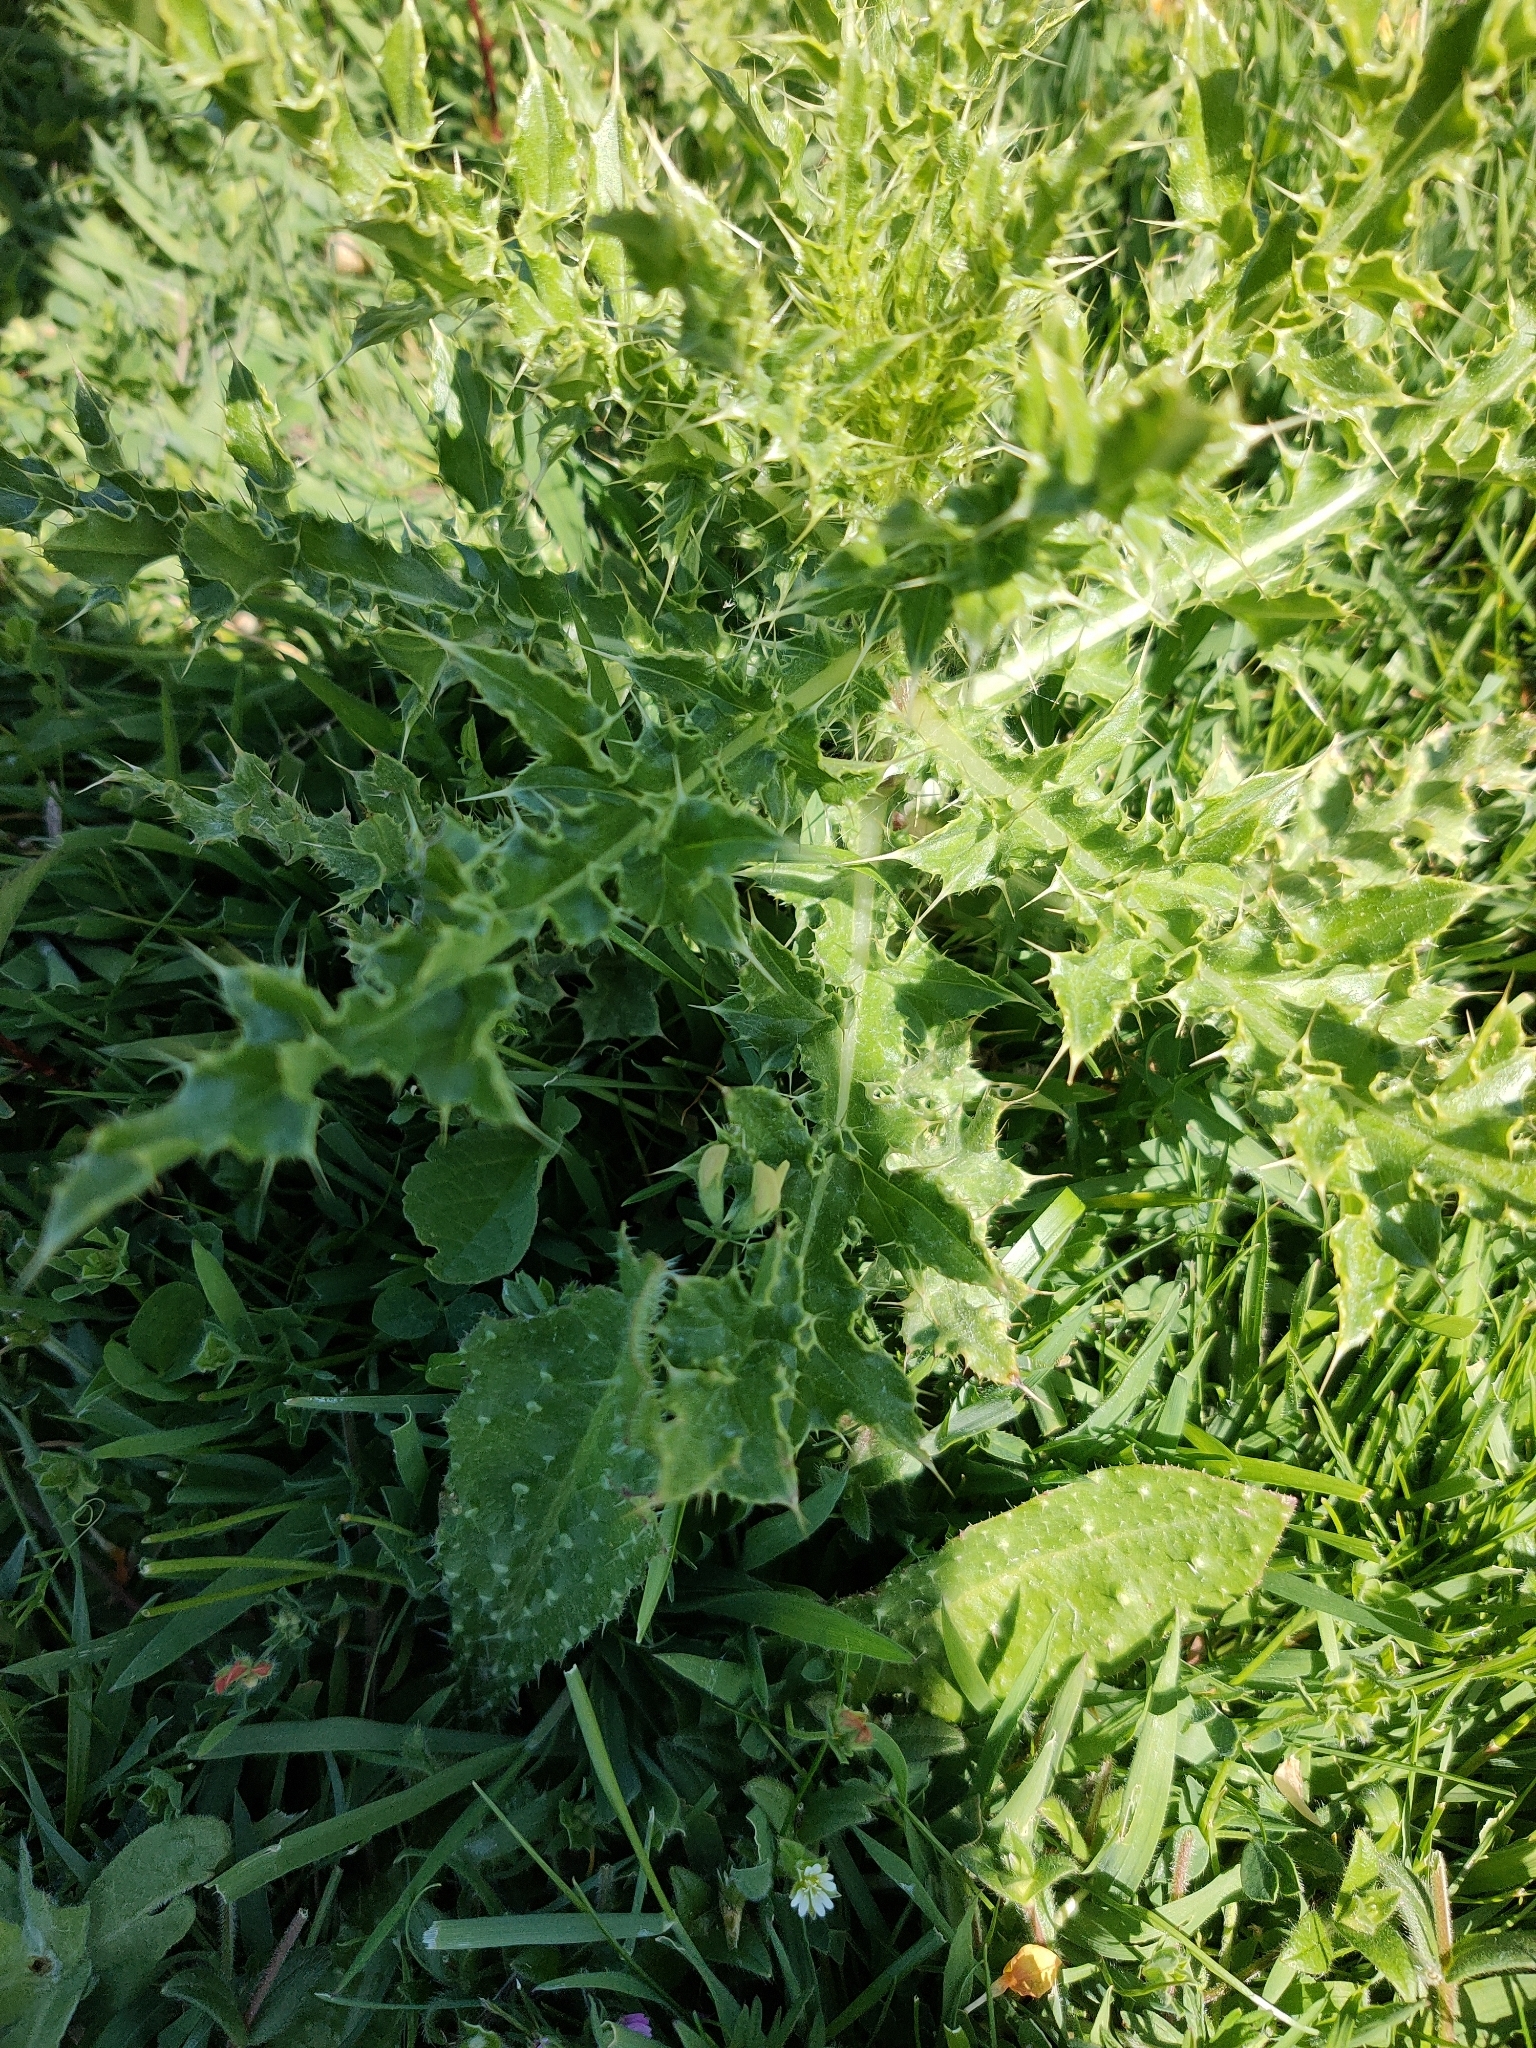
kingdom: Plantae
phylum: Tracheophyta
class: Magnoliopsida
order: Asterales
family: Asteraceae
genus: Cirsium
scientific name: Cirsium arvense
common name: Creeping thistle
